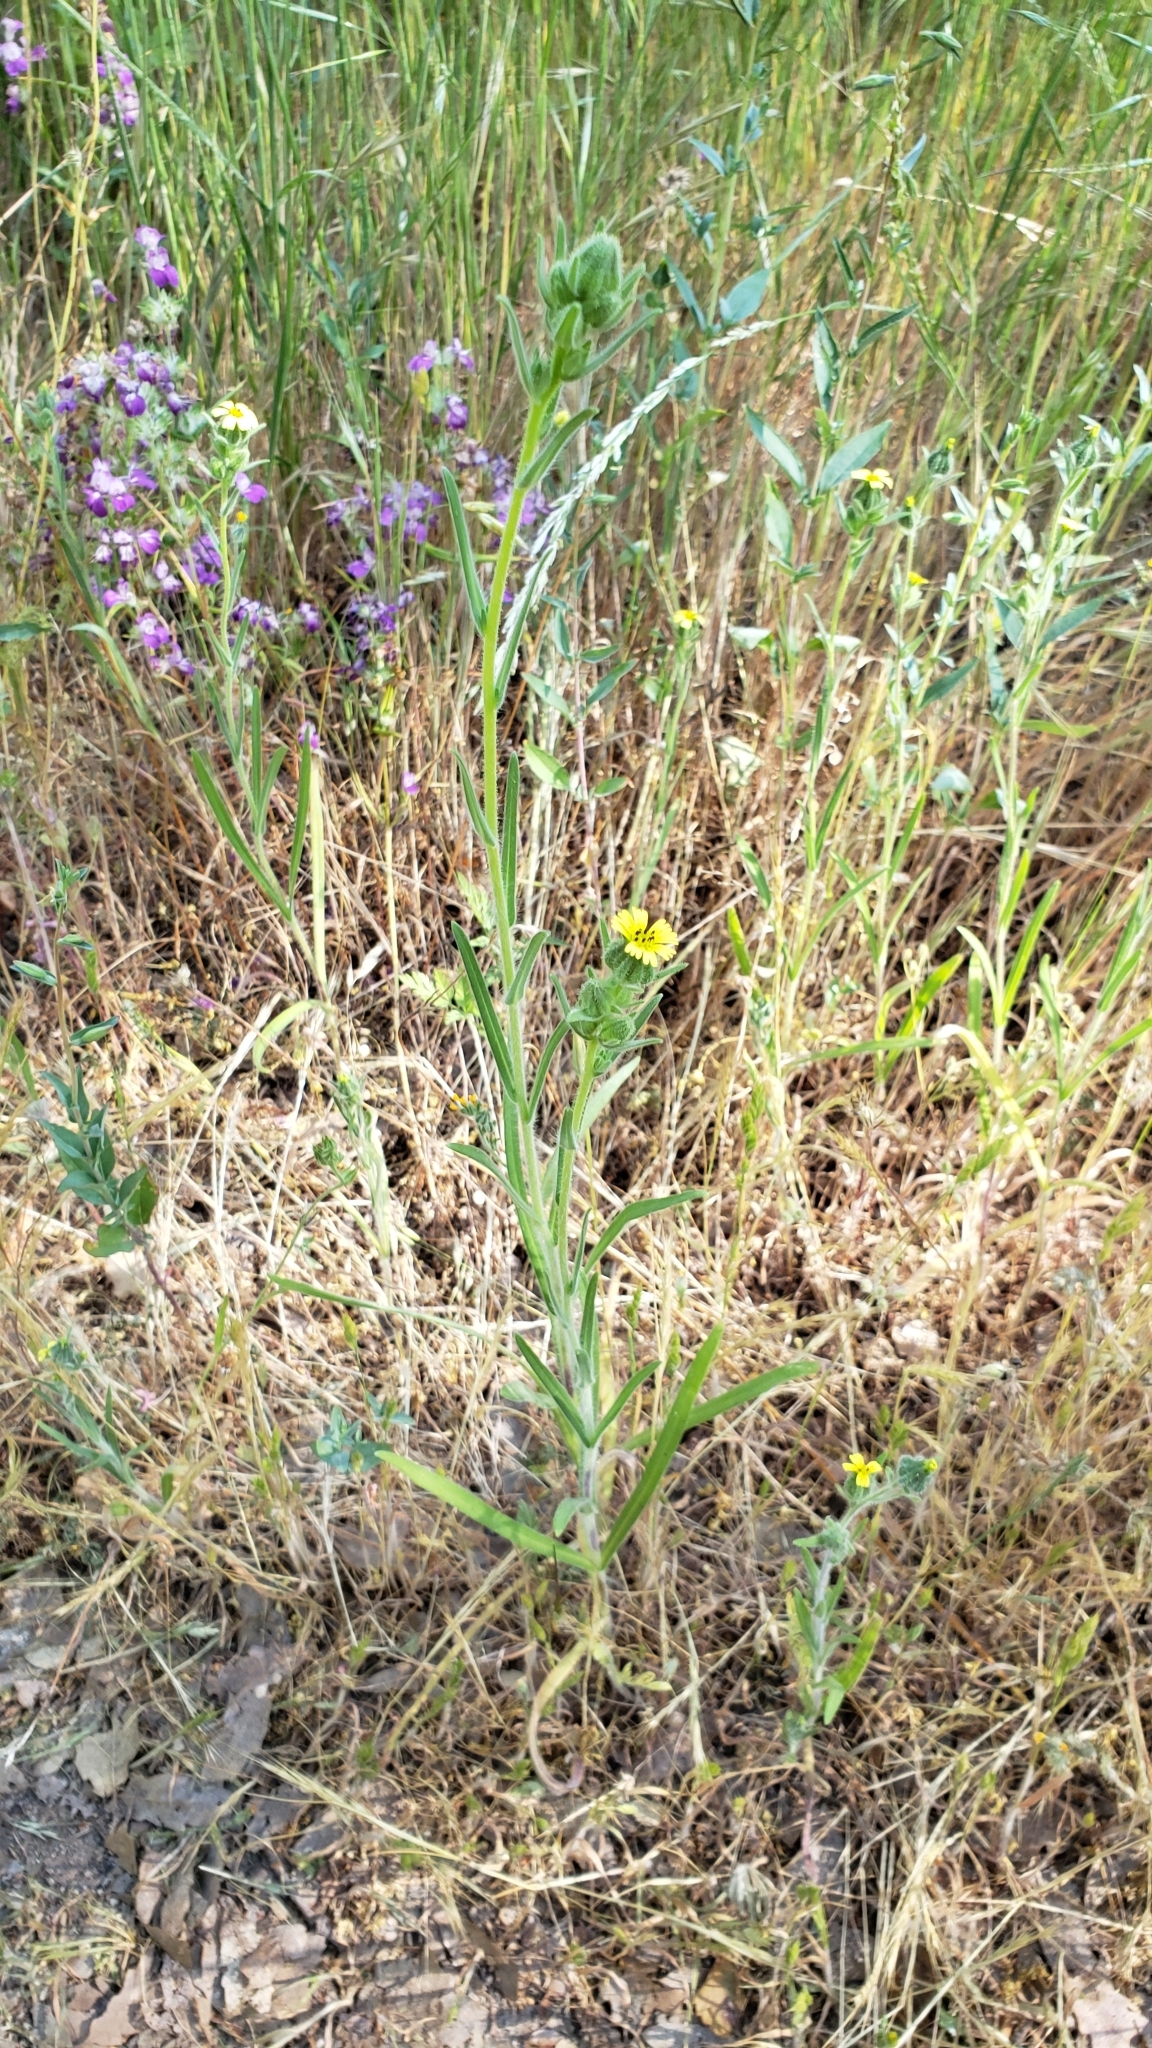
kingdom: Plantae
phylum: Tracheophyta
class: Magnoliopsida
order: Asterales
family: Asteraceae
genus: Madia
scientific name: Madia gracilis
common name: Grassy tarweed
